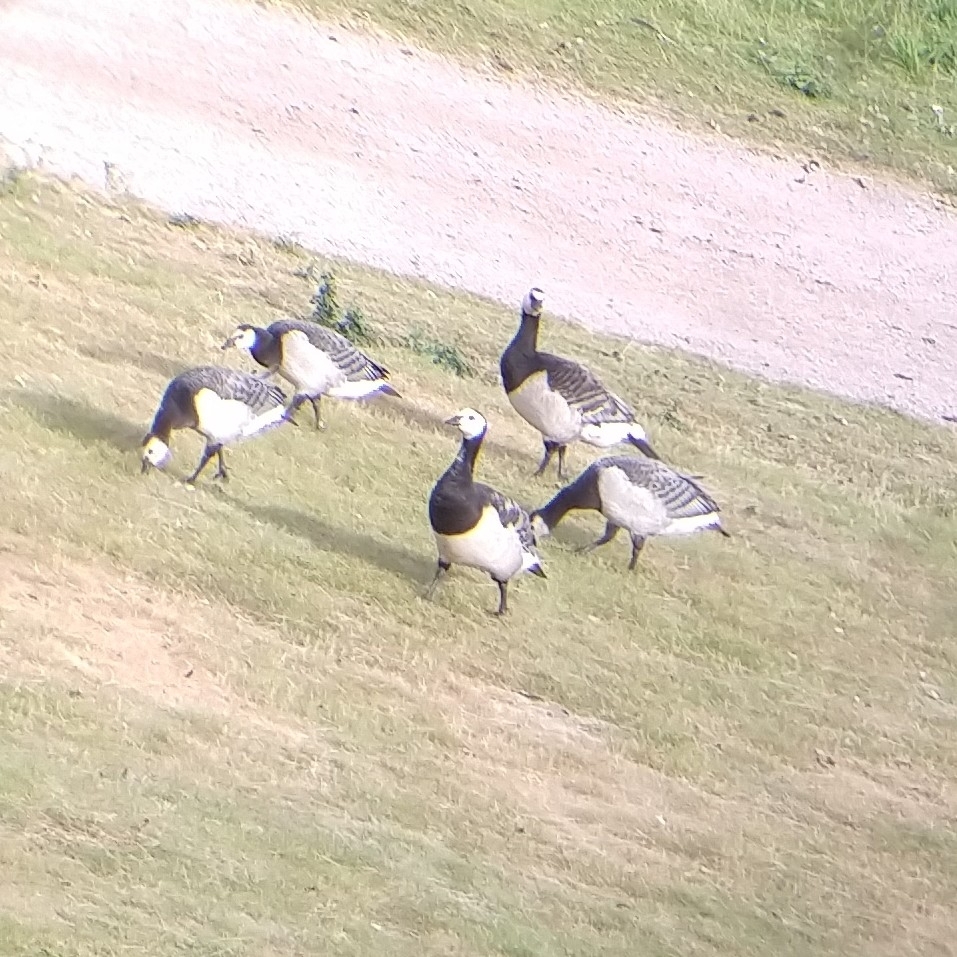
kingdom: Animalia
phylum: Chordata
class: Aves
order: Anseriformes
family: Anatidae
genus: Branta
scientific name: Branta leucopsis
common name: Barnacle goose
